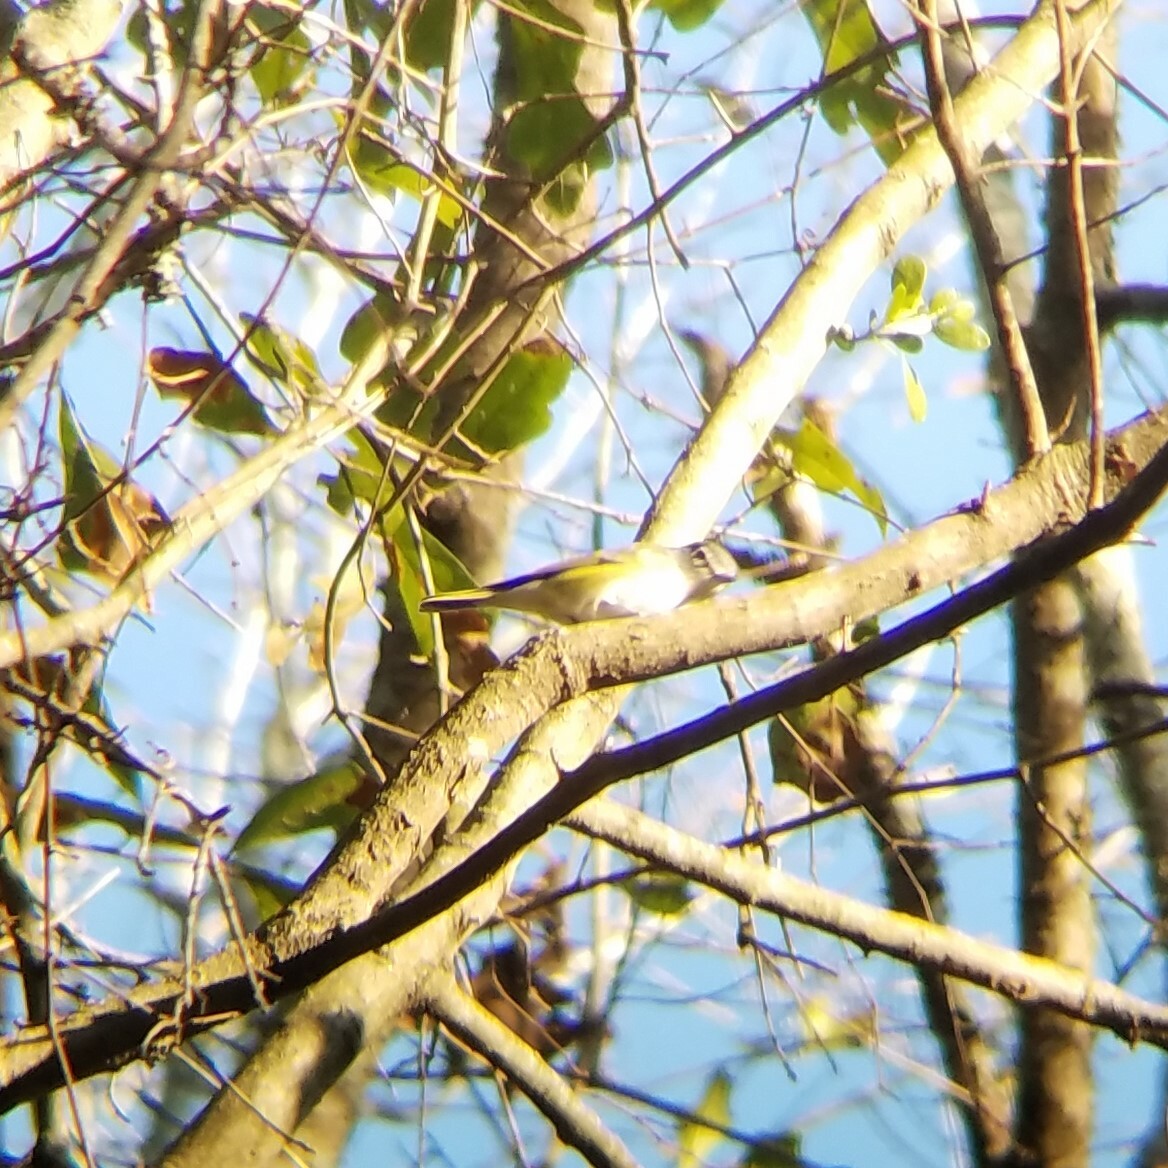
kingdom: Animalia
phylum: Chordata
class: Aves
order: Passeriformes
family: Vireonidae
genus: Vireo
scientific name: Vireo solitarius
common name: Blue-headed vireo
